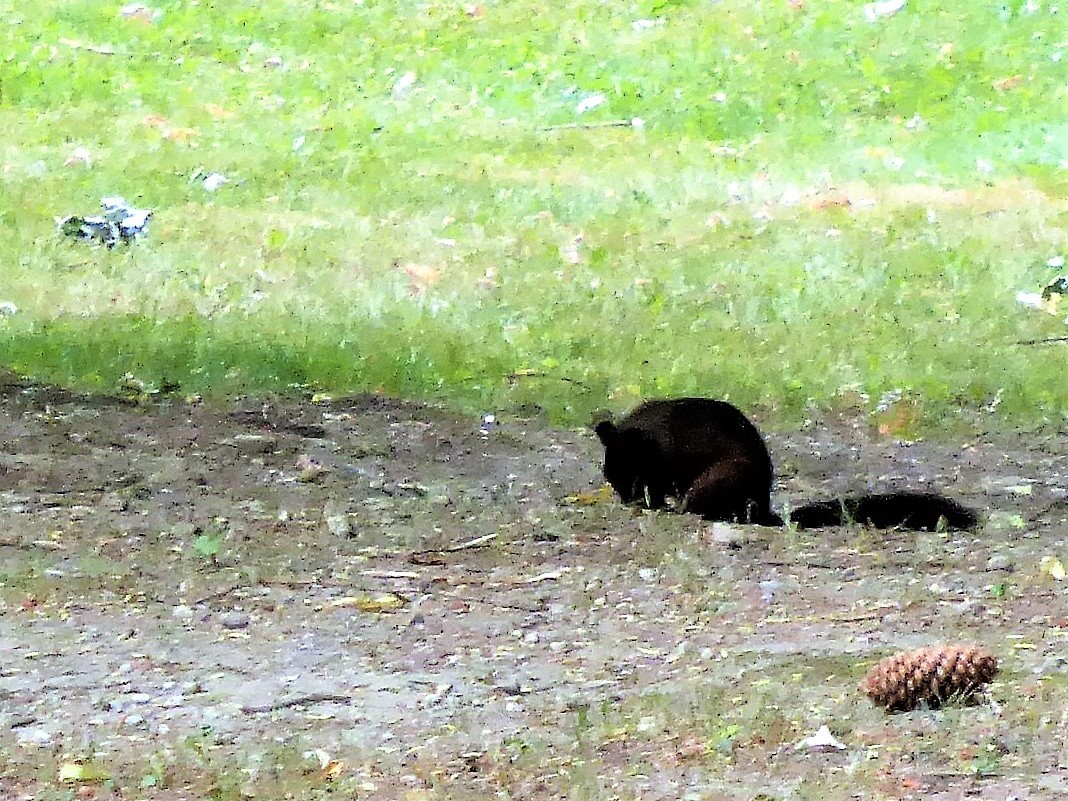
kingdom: Animalia
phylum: Chordata
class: Mammalia
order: Rodentia
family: Sciuridae
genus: Sciurus
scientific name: Sciurus vulgaris
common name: Eurasian red squirrel
